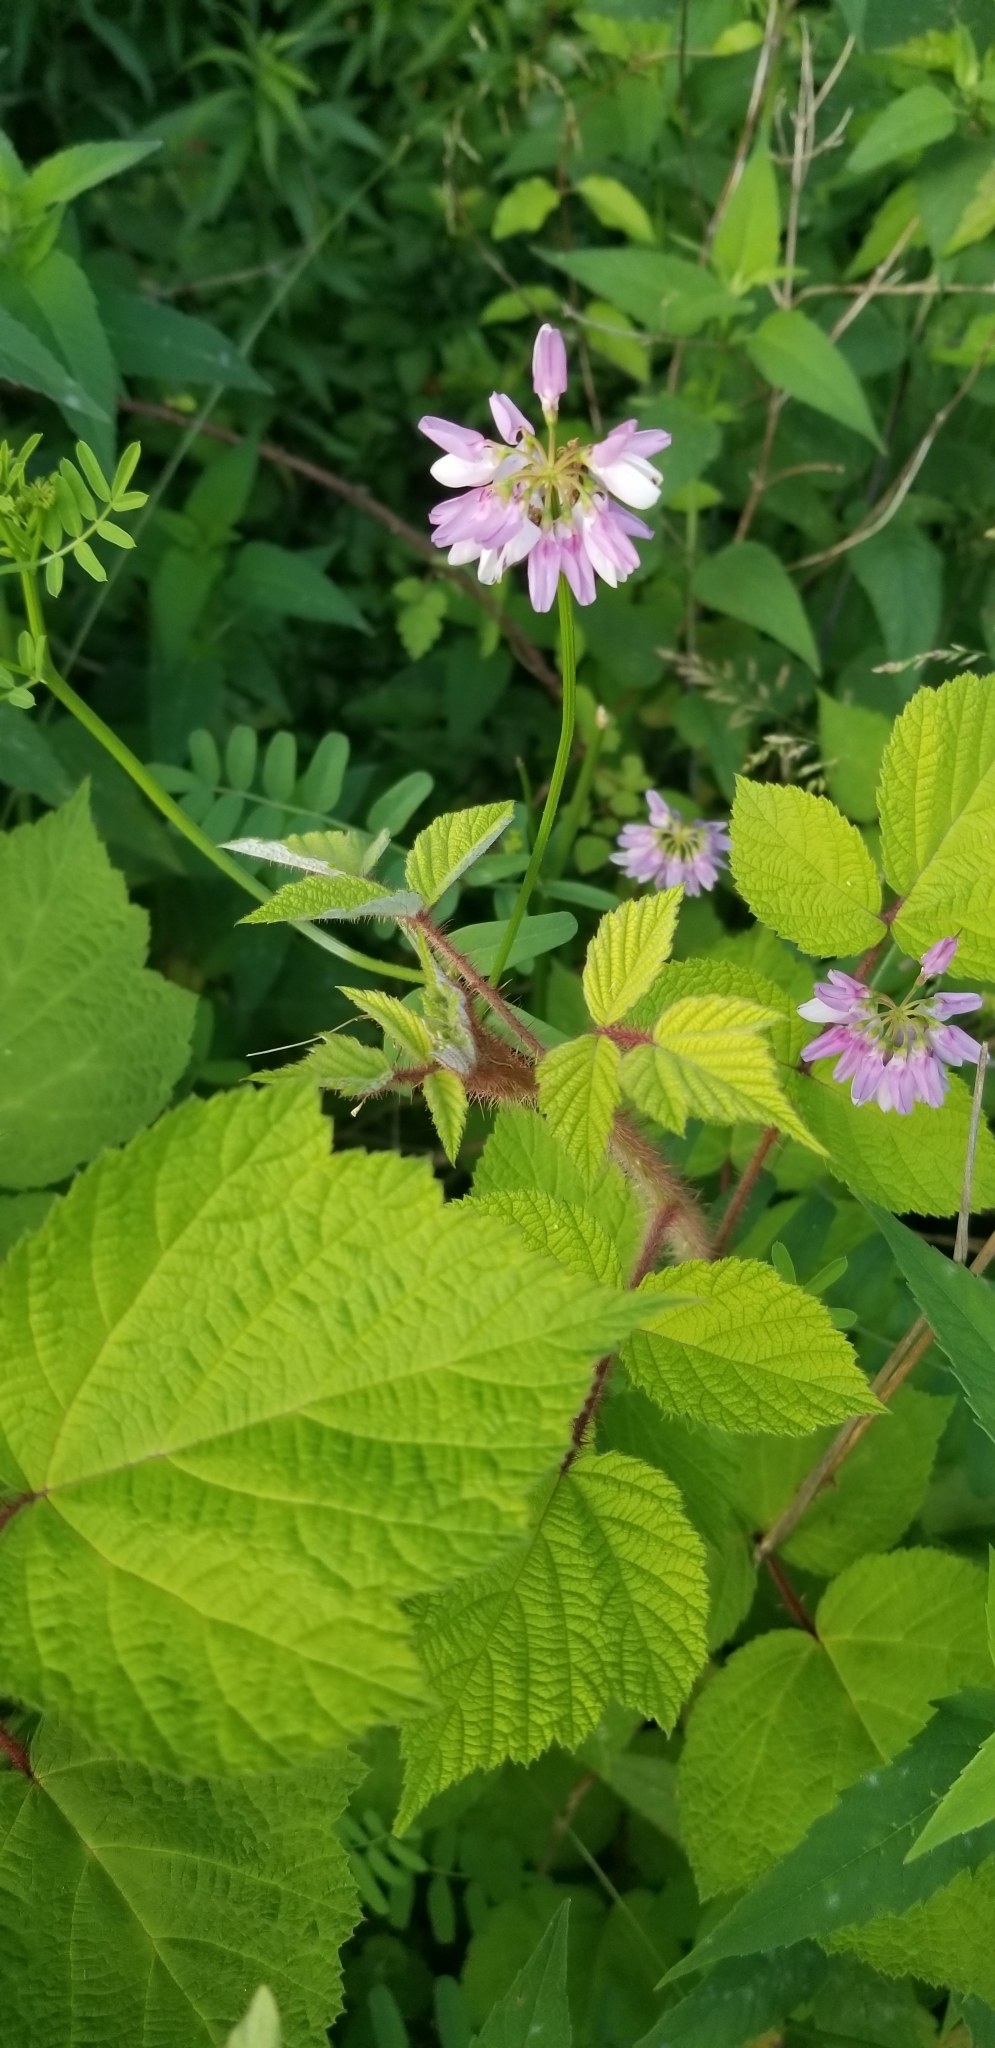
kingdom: Plantae
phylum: Tracheophyta
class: Magnoliopsida
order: Fabales
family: Fabaceae
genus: Coronilla
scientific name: Coronilla varia
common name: Crownvetch
